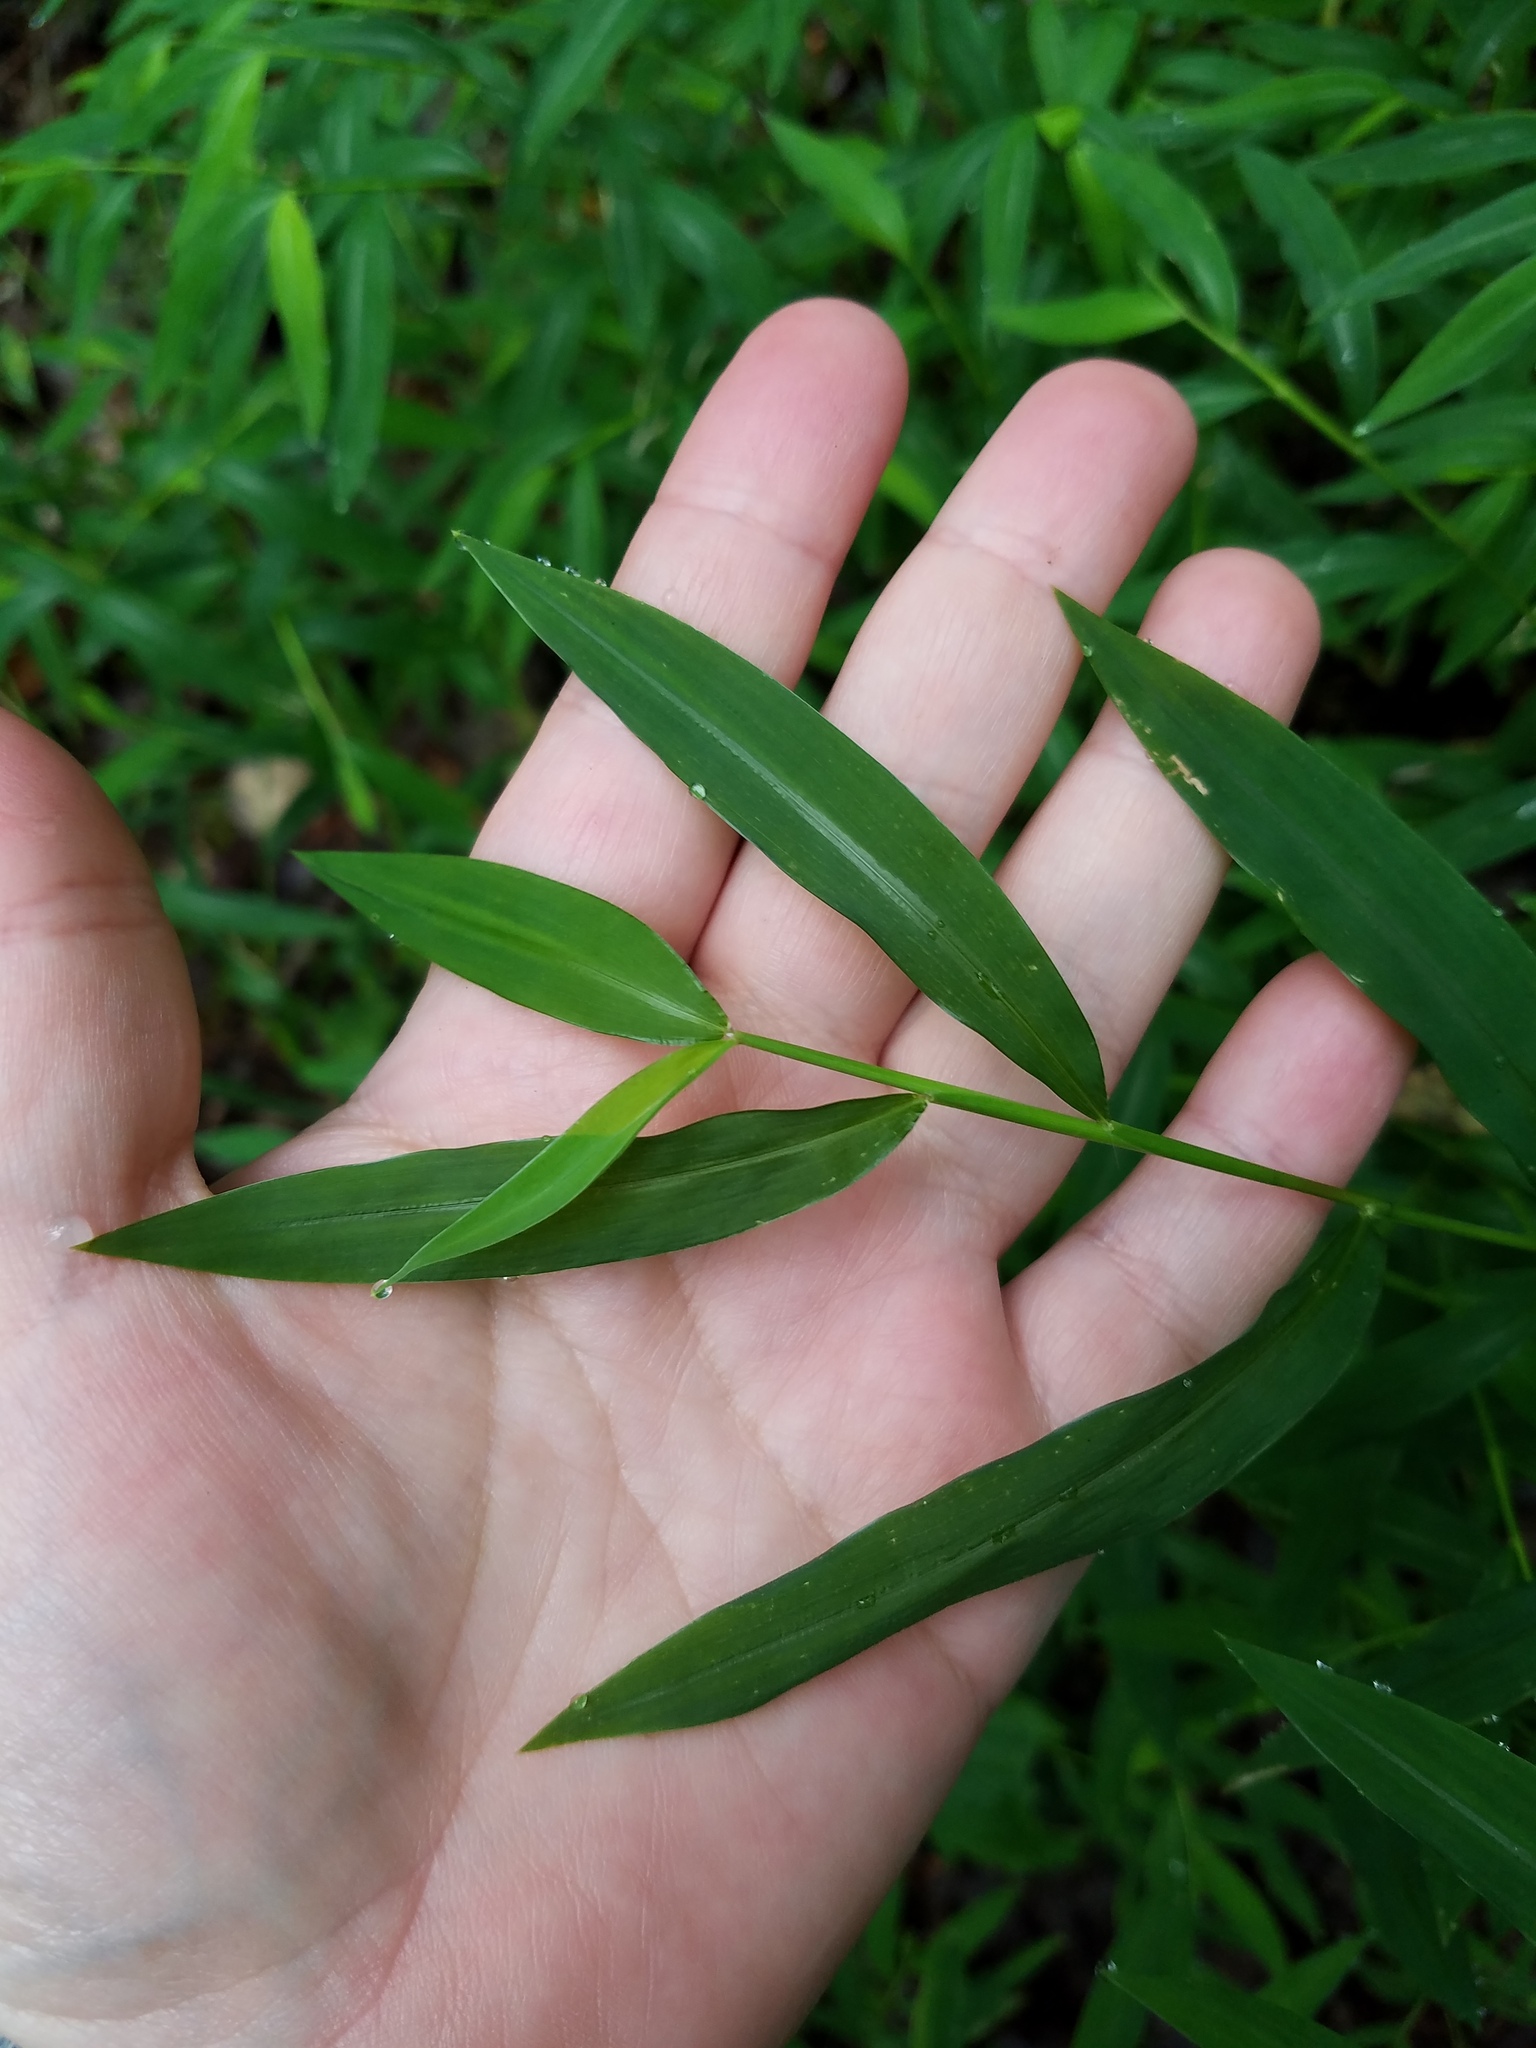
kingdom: Plantae
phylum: Tracheophyta
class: Liliopsida
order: Poales
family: Poaceae
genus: Microstegium
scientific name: Microstegium vimineum
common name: Japanese stiltgrass
